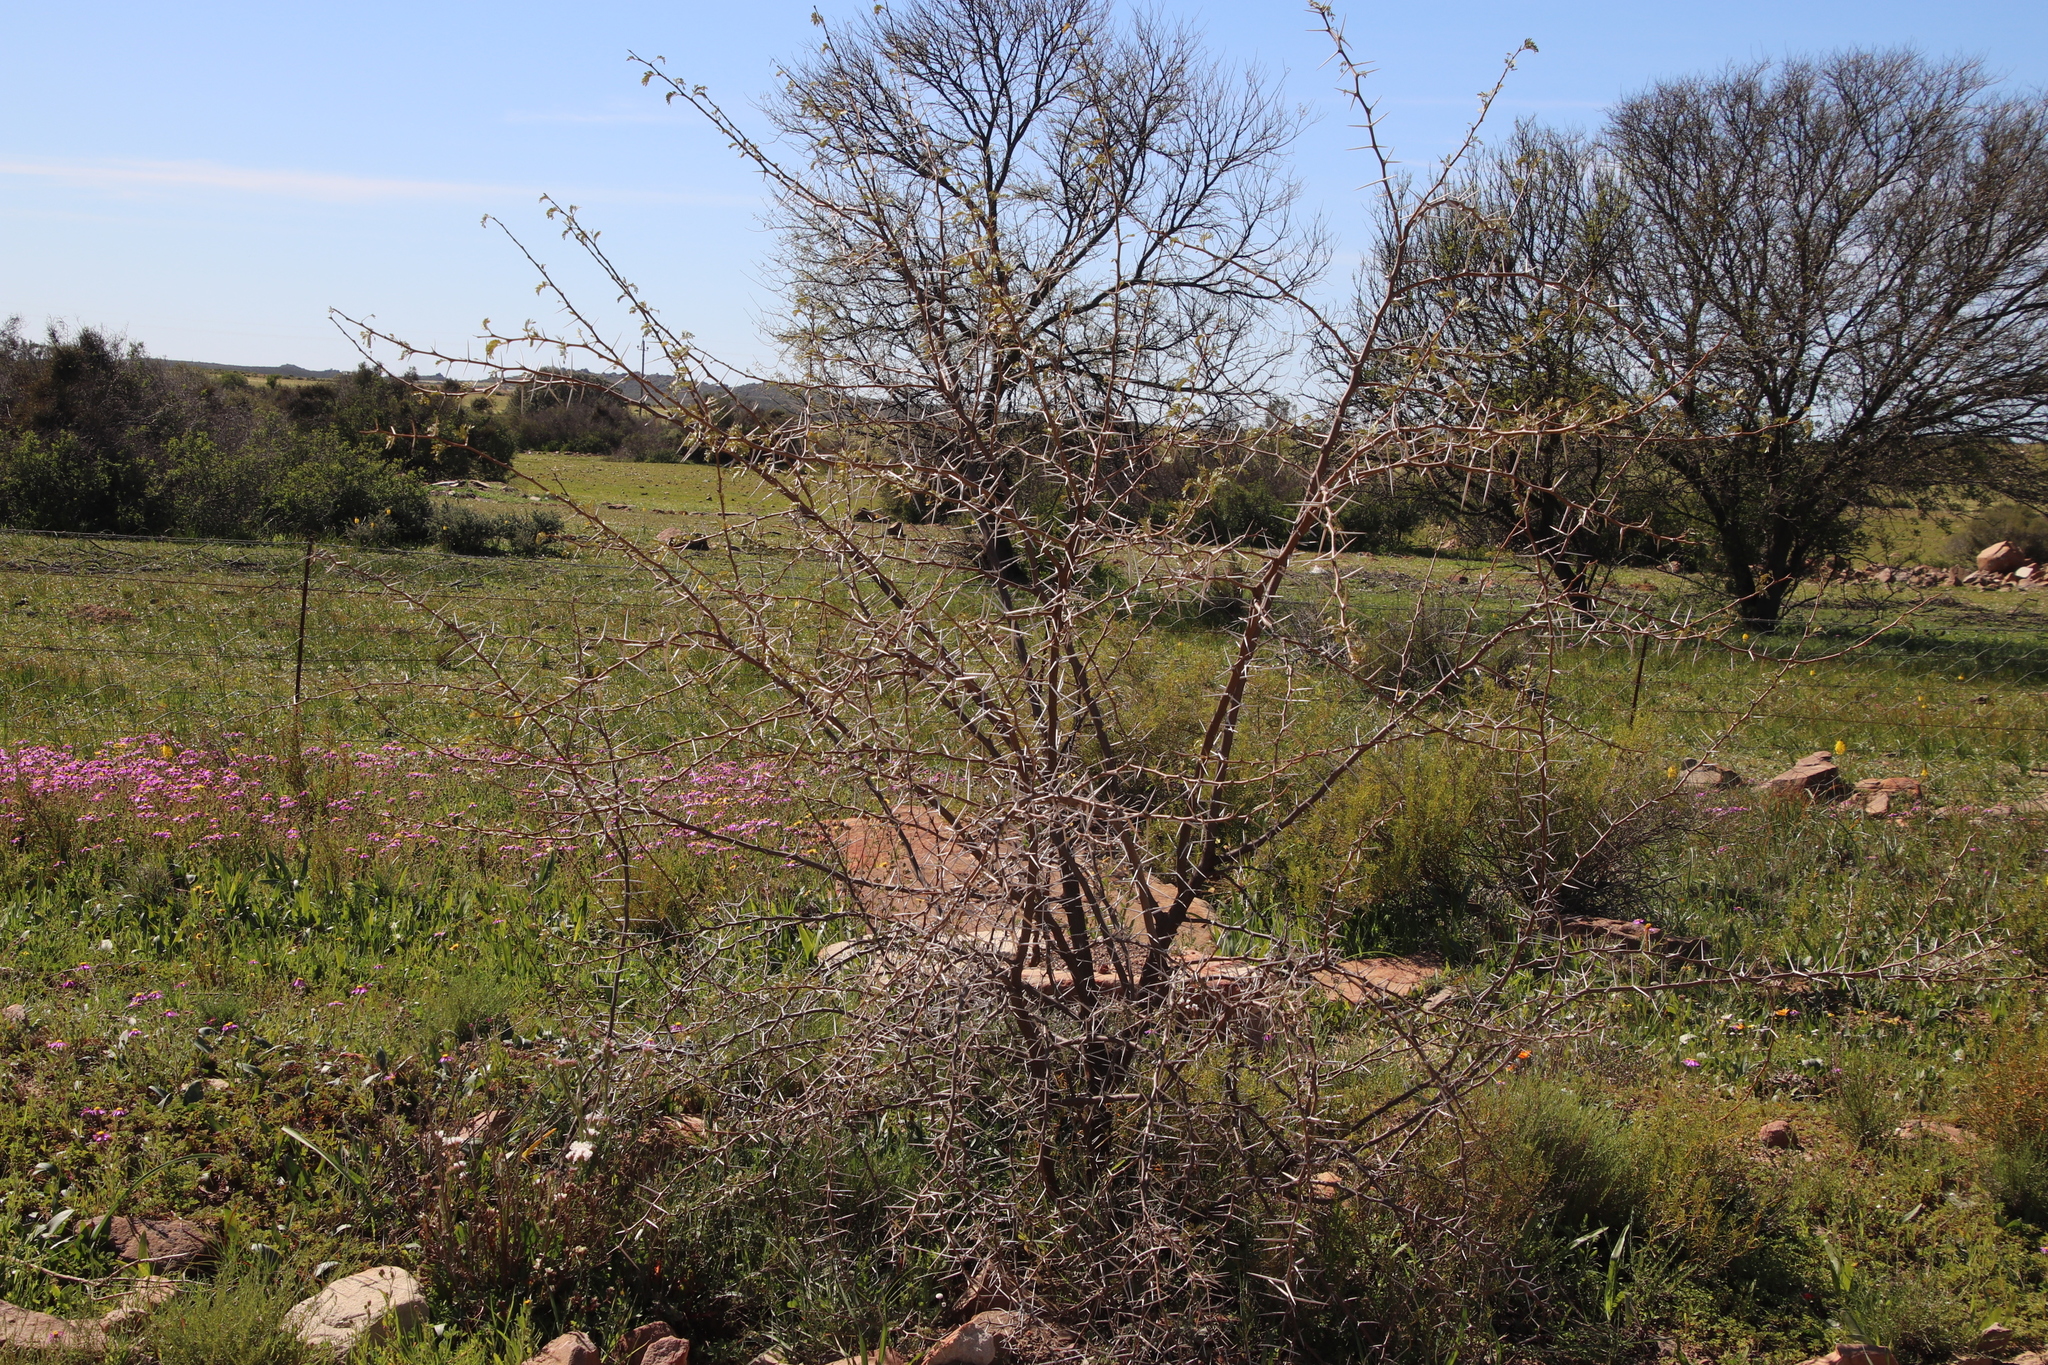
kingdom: Plantae
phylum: Tracheophyta
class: Magnoliopsida
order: Fabales
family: Fabaceae
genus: Vachellia
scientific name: Vachellia karroo
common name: Sweet thorn
